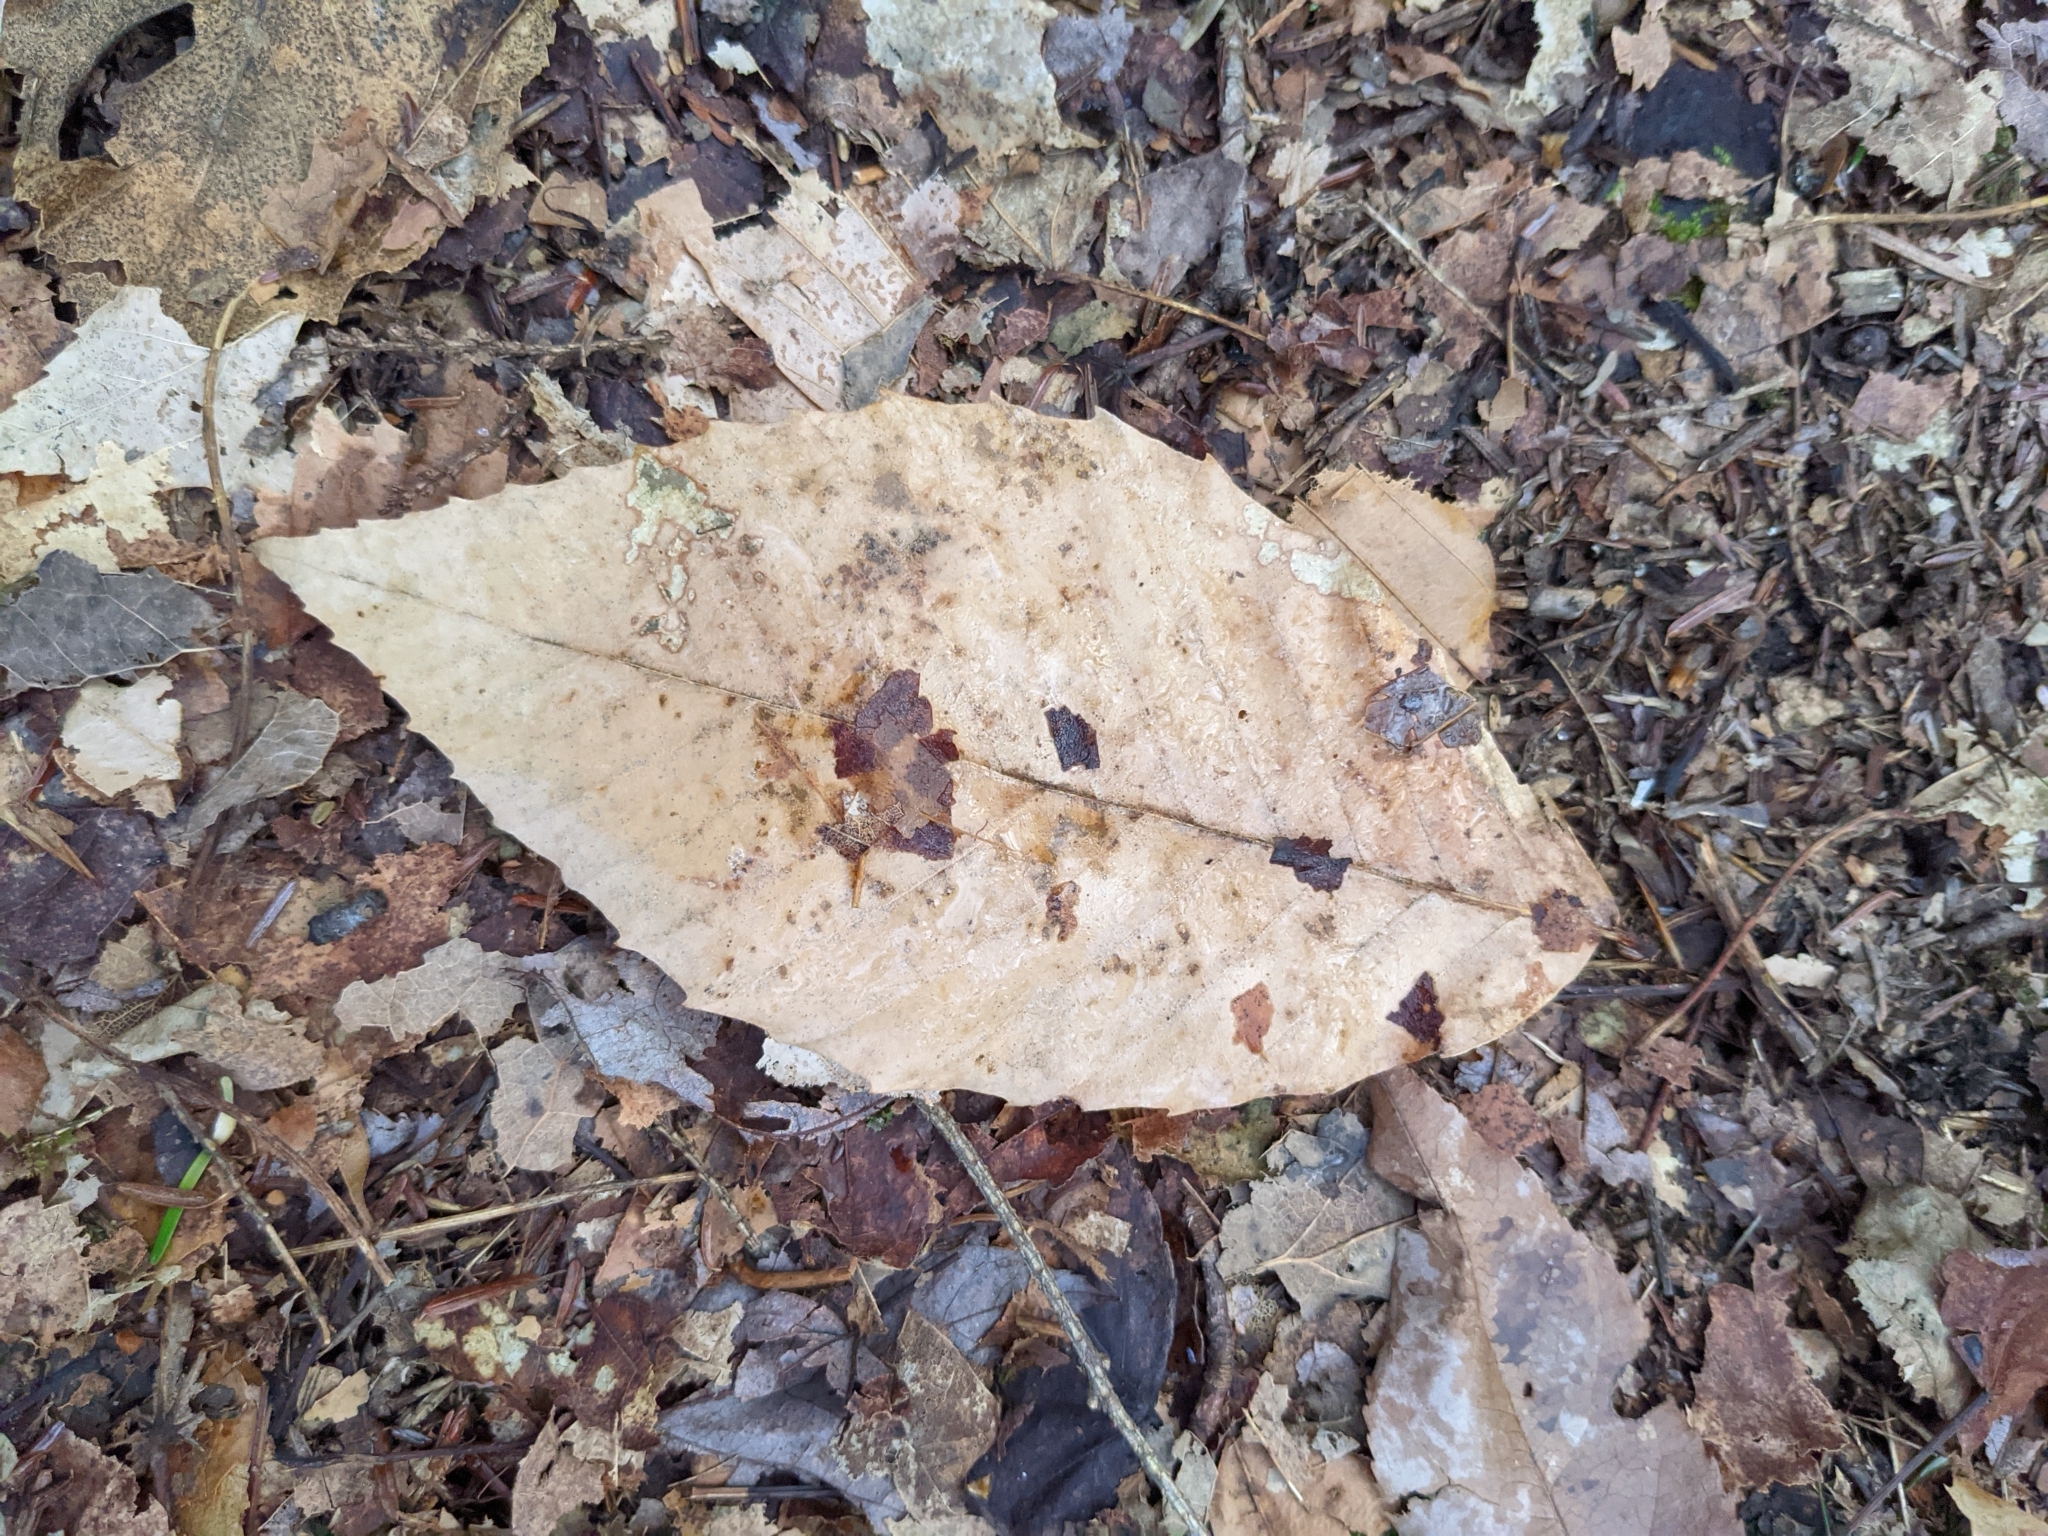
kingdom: Plantae
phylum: Tracheophyta
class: Magnoliopsida
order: Fagales
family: Fagaceae
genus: Fagus
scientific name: Fagus grandifolia
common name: American beech
